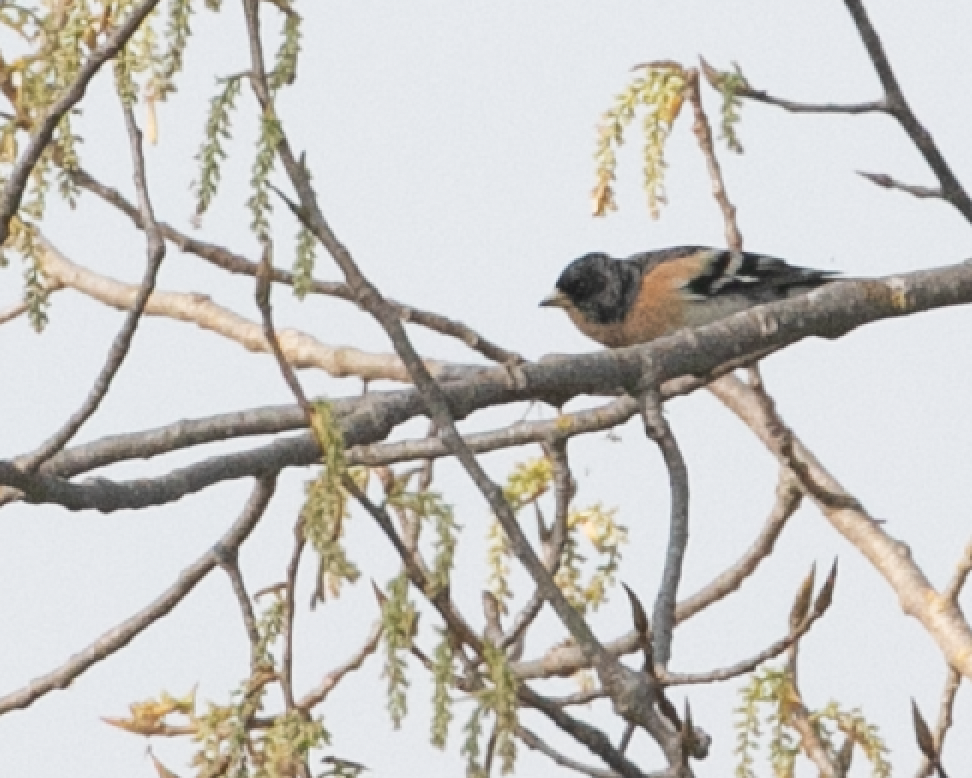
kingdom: Animalia
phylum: Chordata
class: Aves
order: Passeriformes
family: Fringillidae
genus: Fringilla
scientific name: Fringilla montifringilla
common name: Brambling
